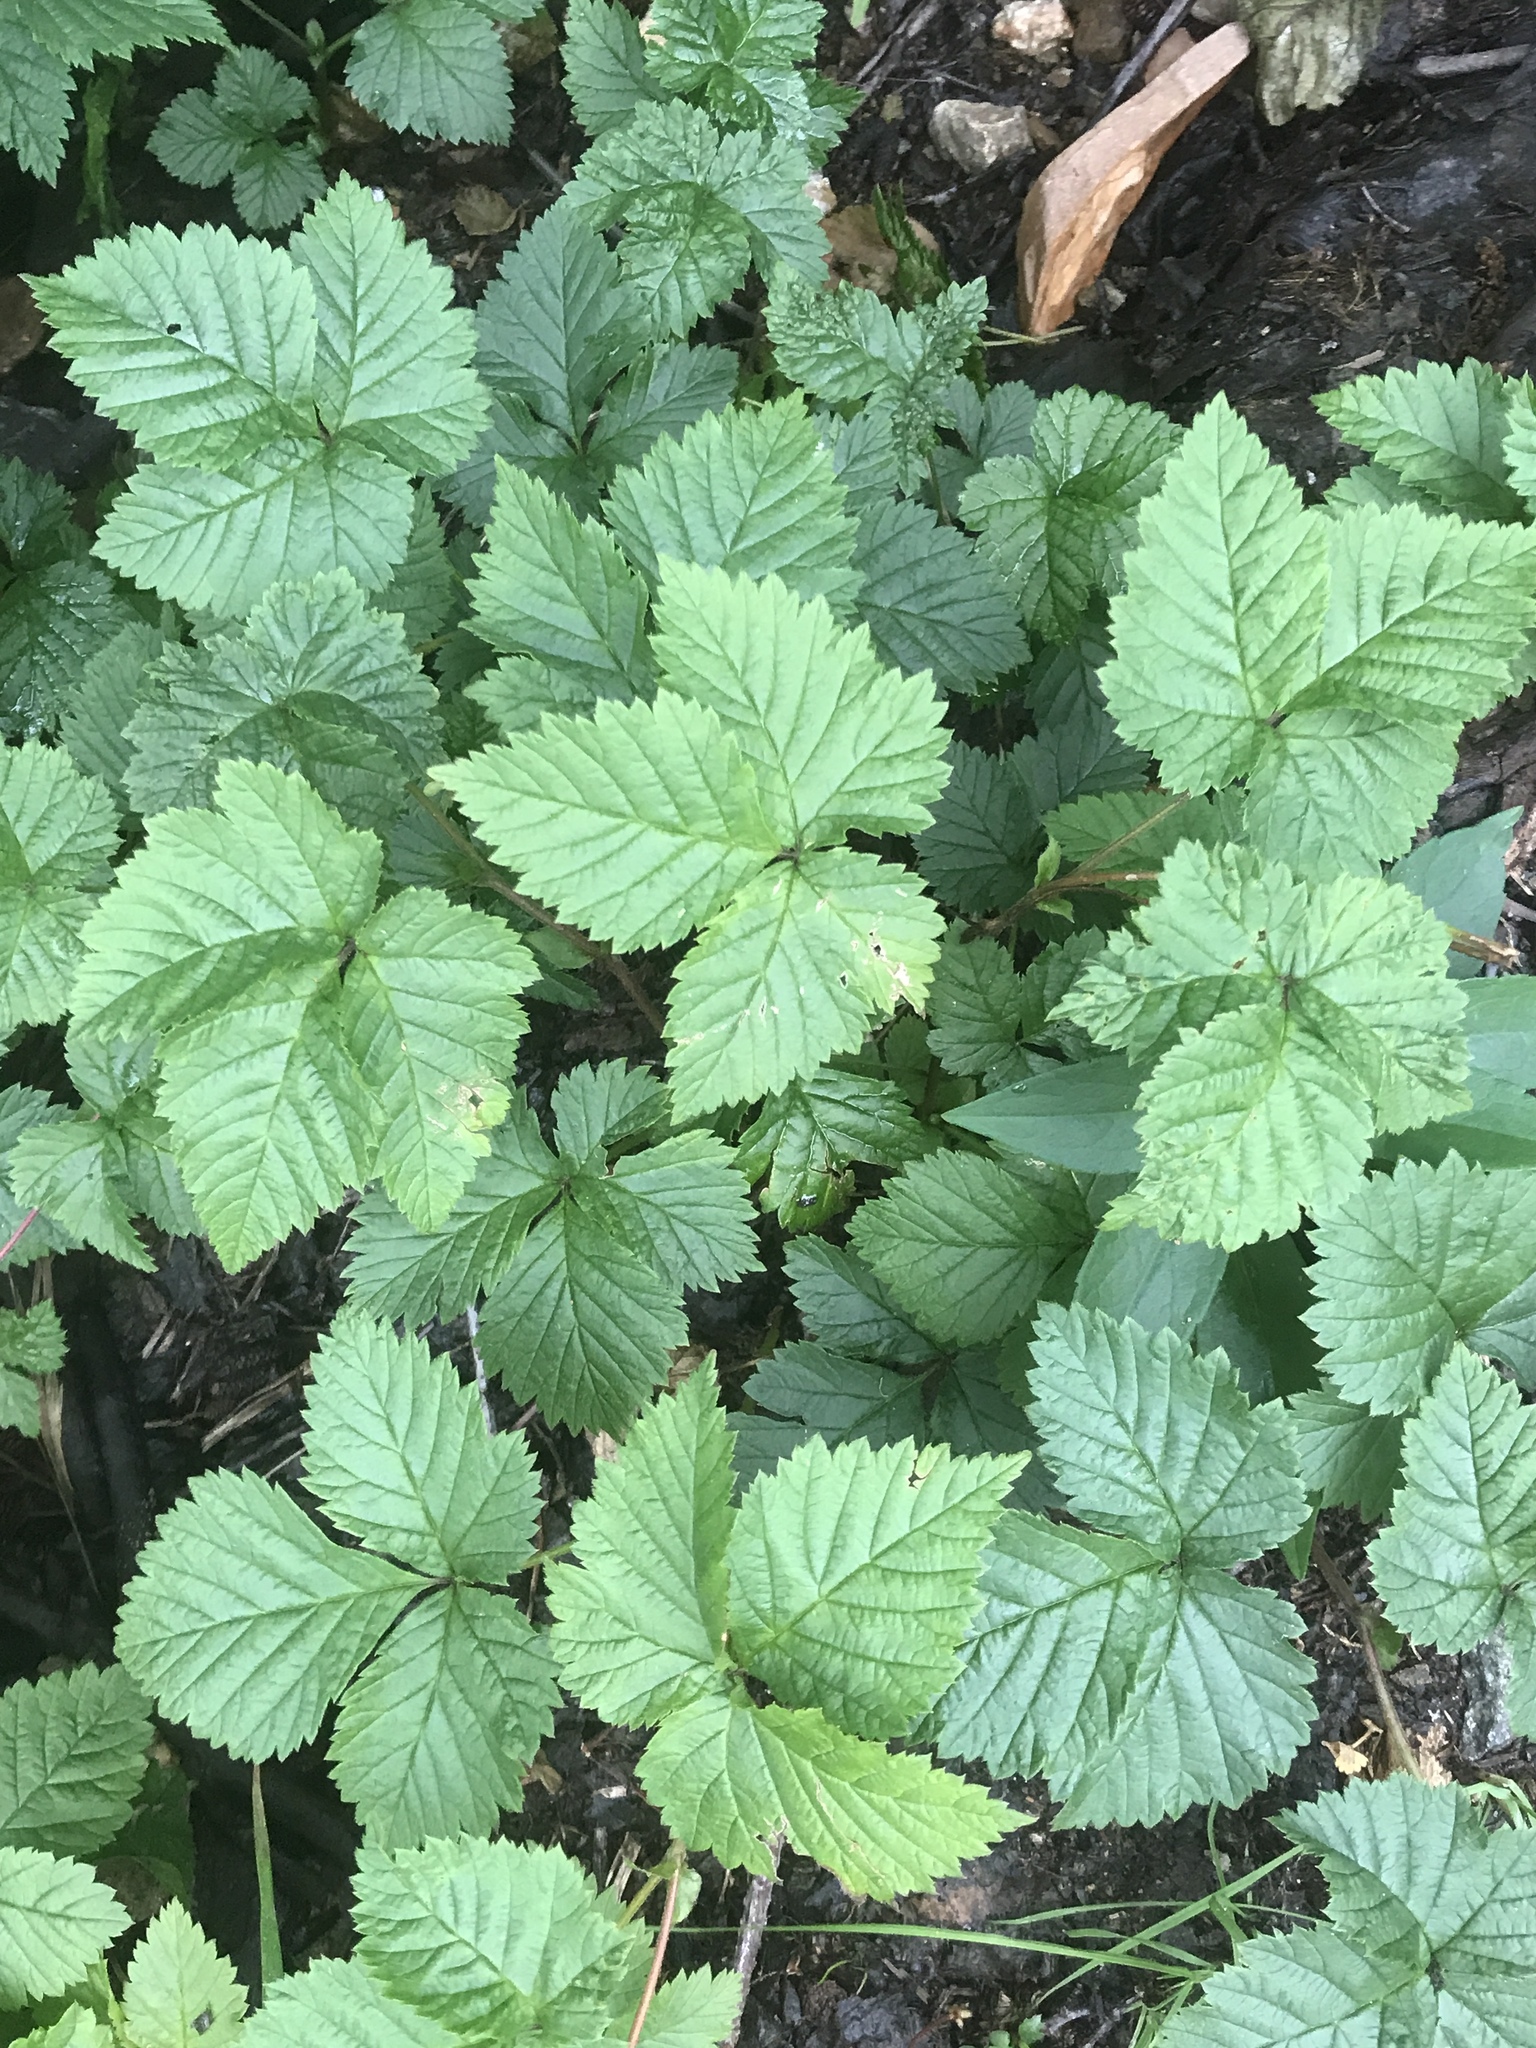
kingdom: Plantae
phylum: Tracheophyta
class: Magnoliopsida
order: Rosales
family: Rosaceae
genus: Rubus
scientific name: Rubus pubescens
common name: Dwarf raspberry
